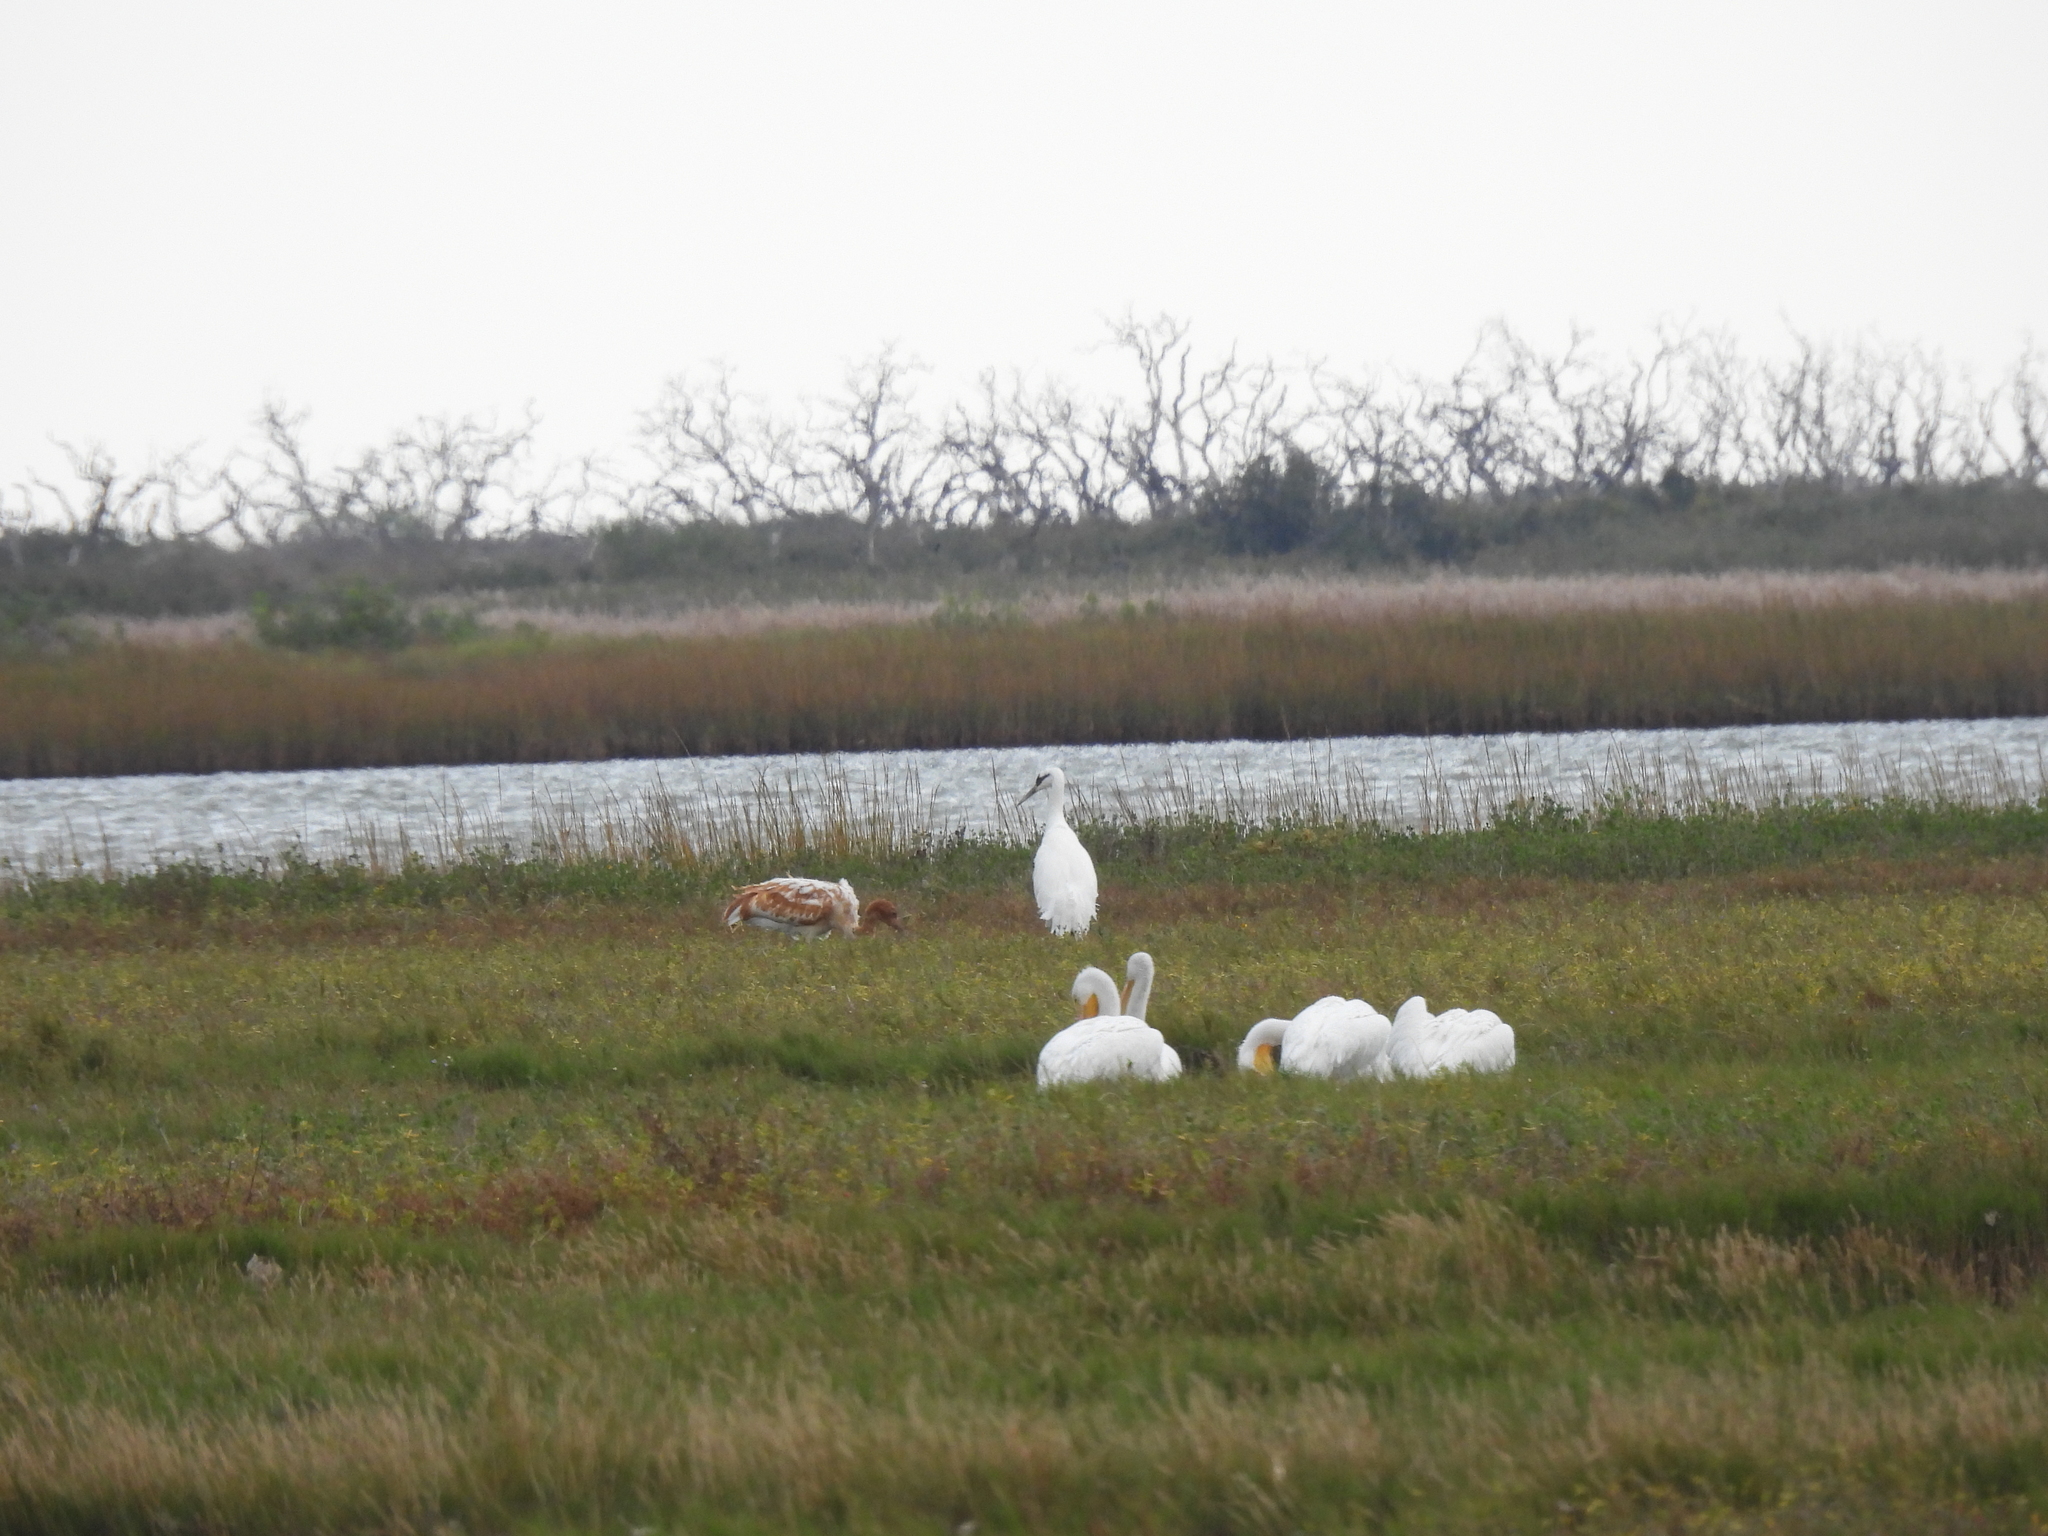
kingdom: Animalia
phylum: Chordata
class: Aves
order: Gruiformes
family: Gruidae
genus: Grus
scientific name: Grus americana
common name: Whooping crane
